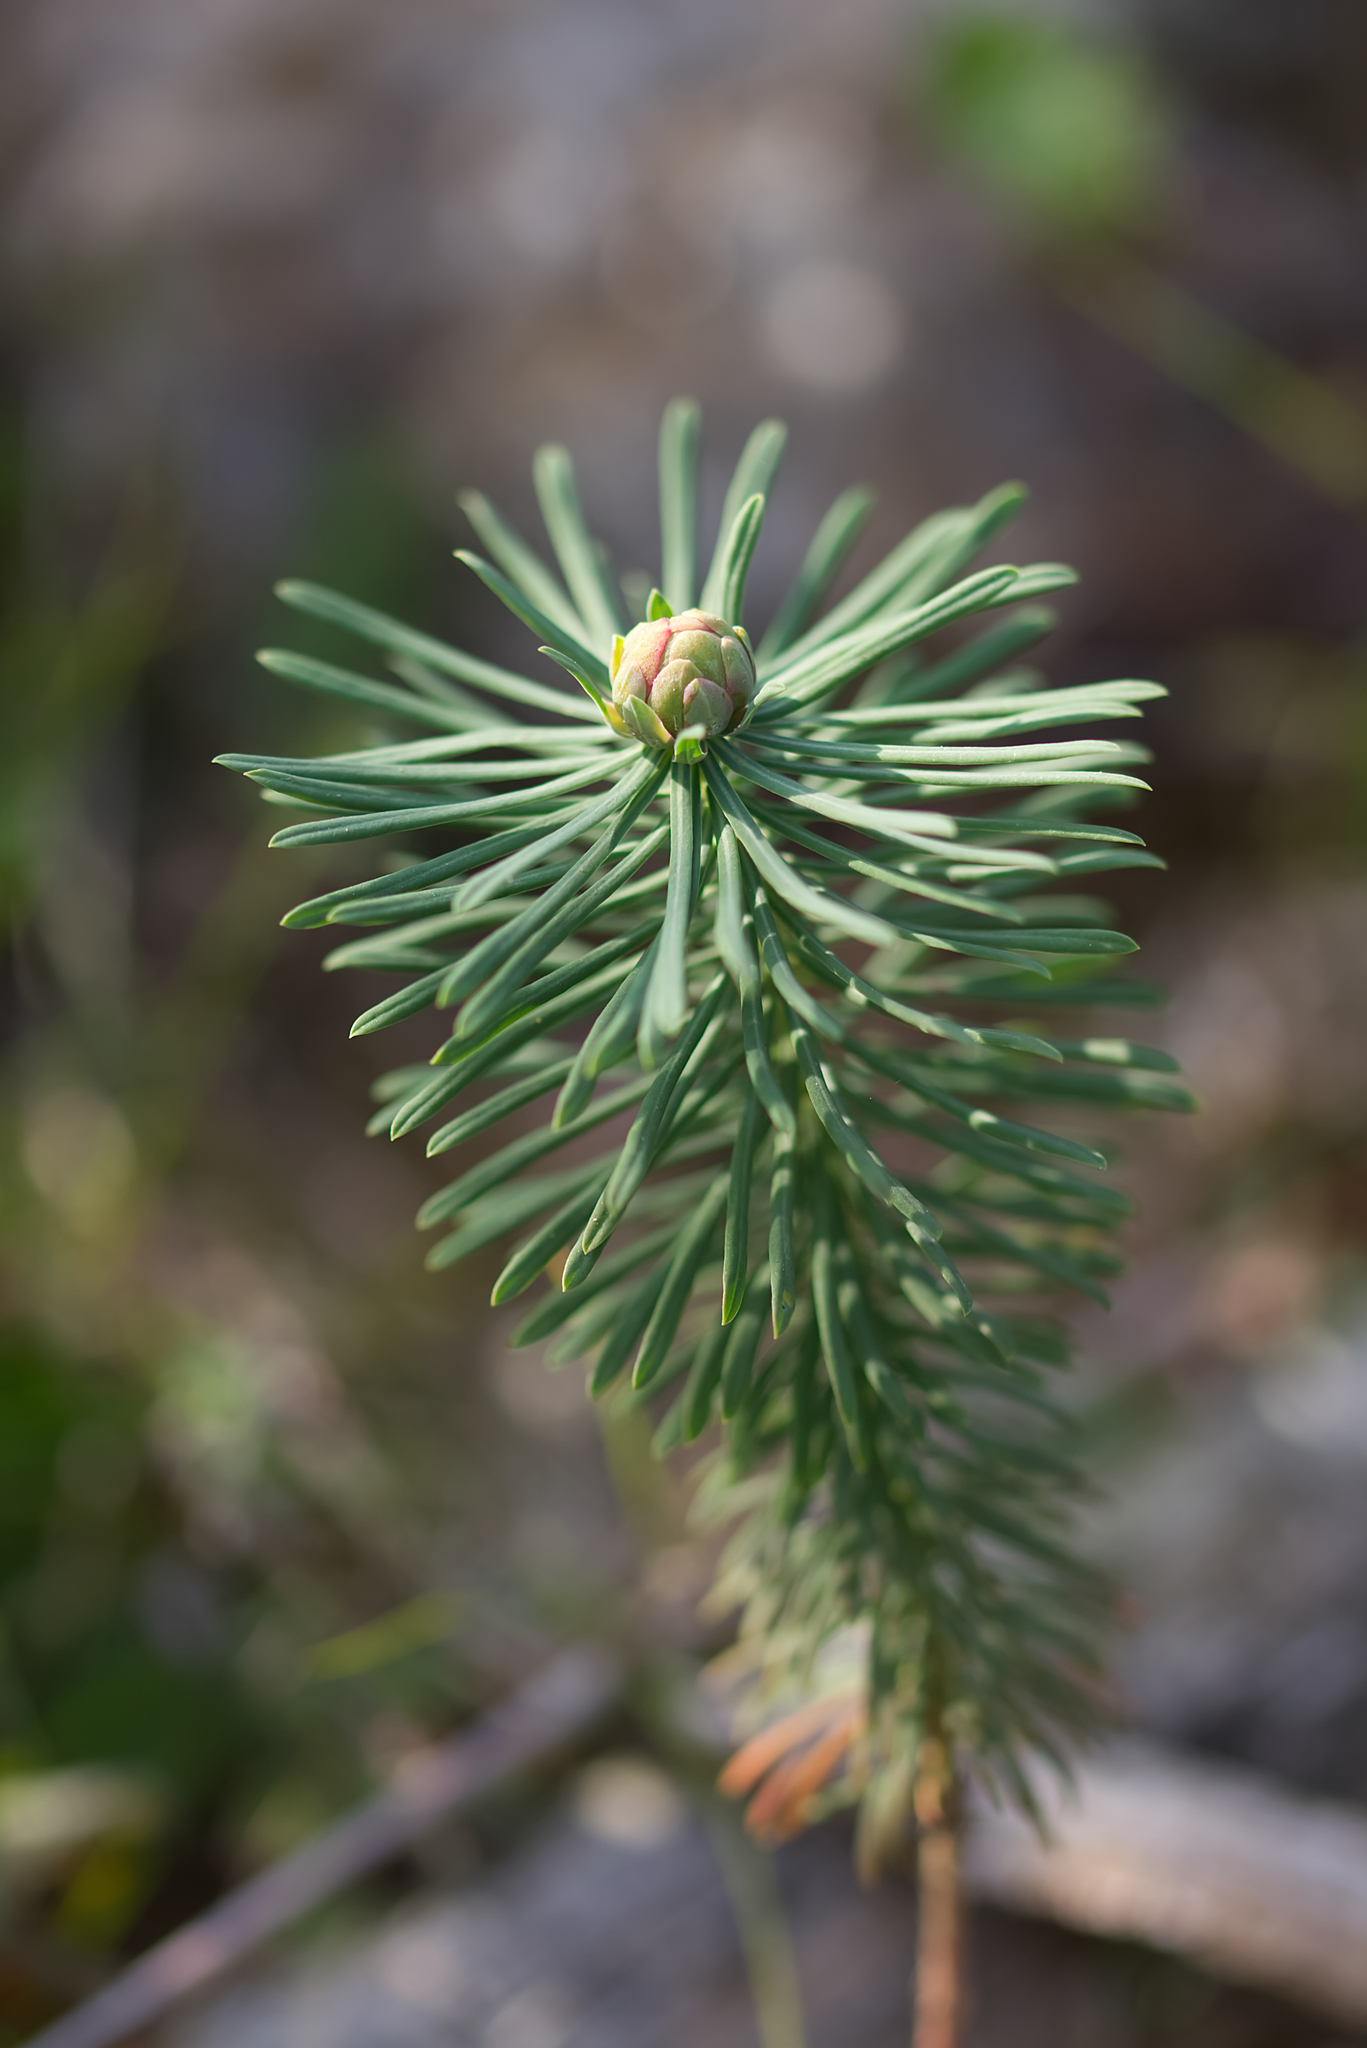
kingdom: Plantae
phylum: Tracheophyta
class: Magnoliopsida
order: Malpighiales
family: Euphorbiaceae
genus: Euphorbia
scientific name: Euphorbia cyparissias
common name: Cypress spurge
